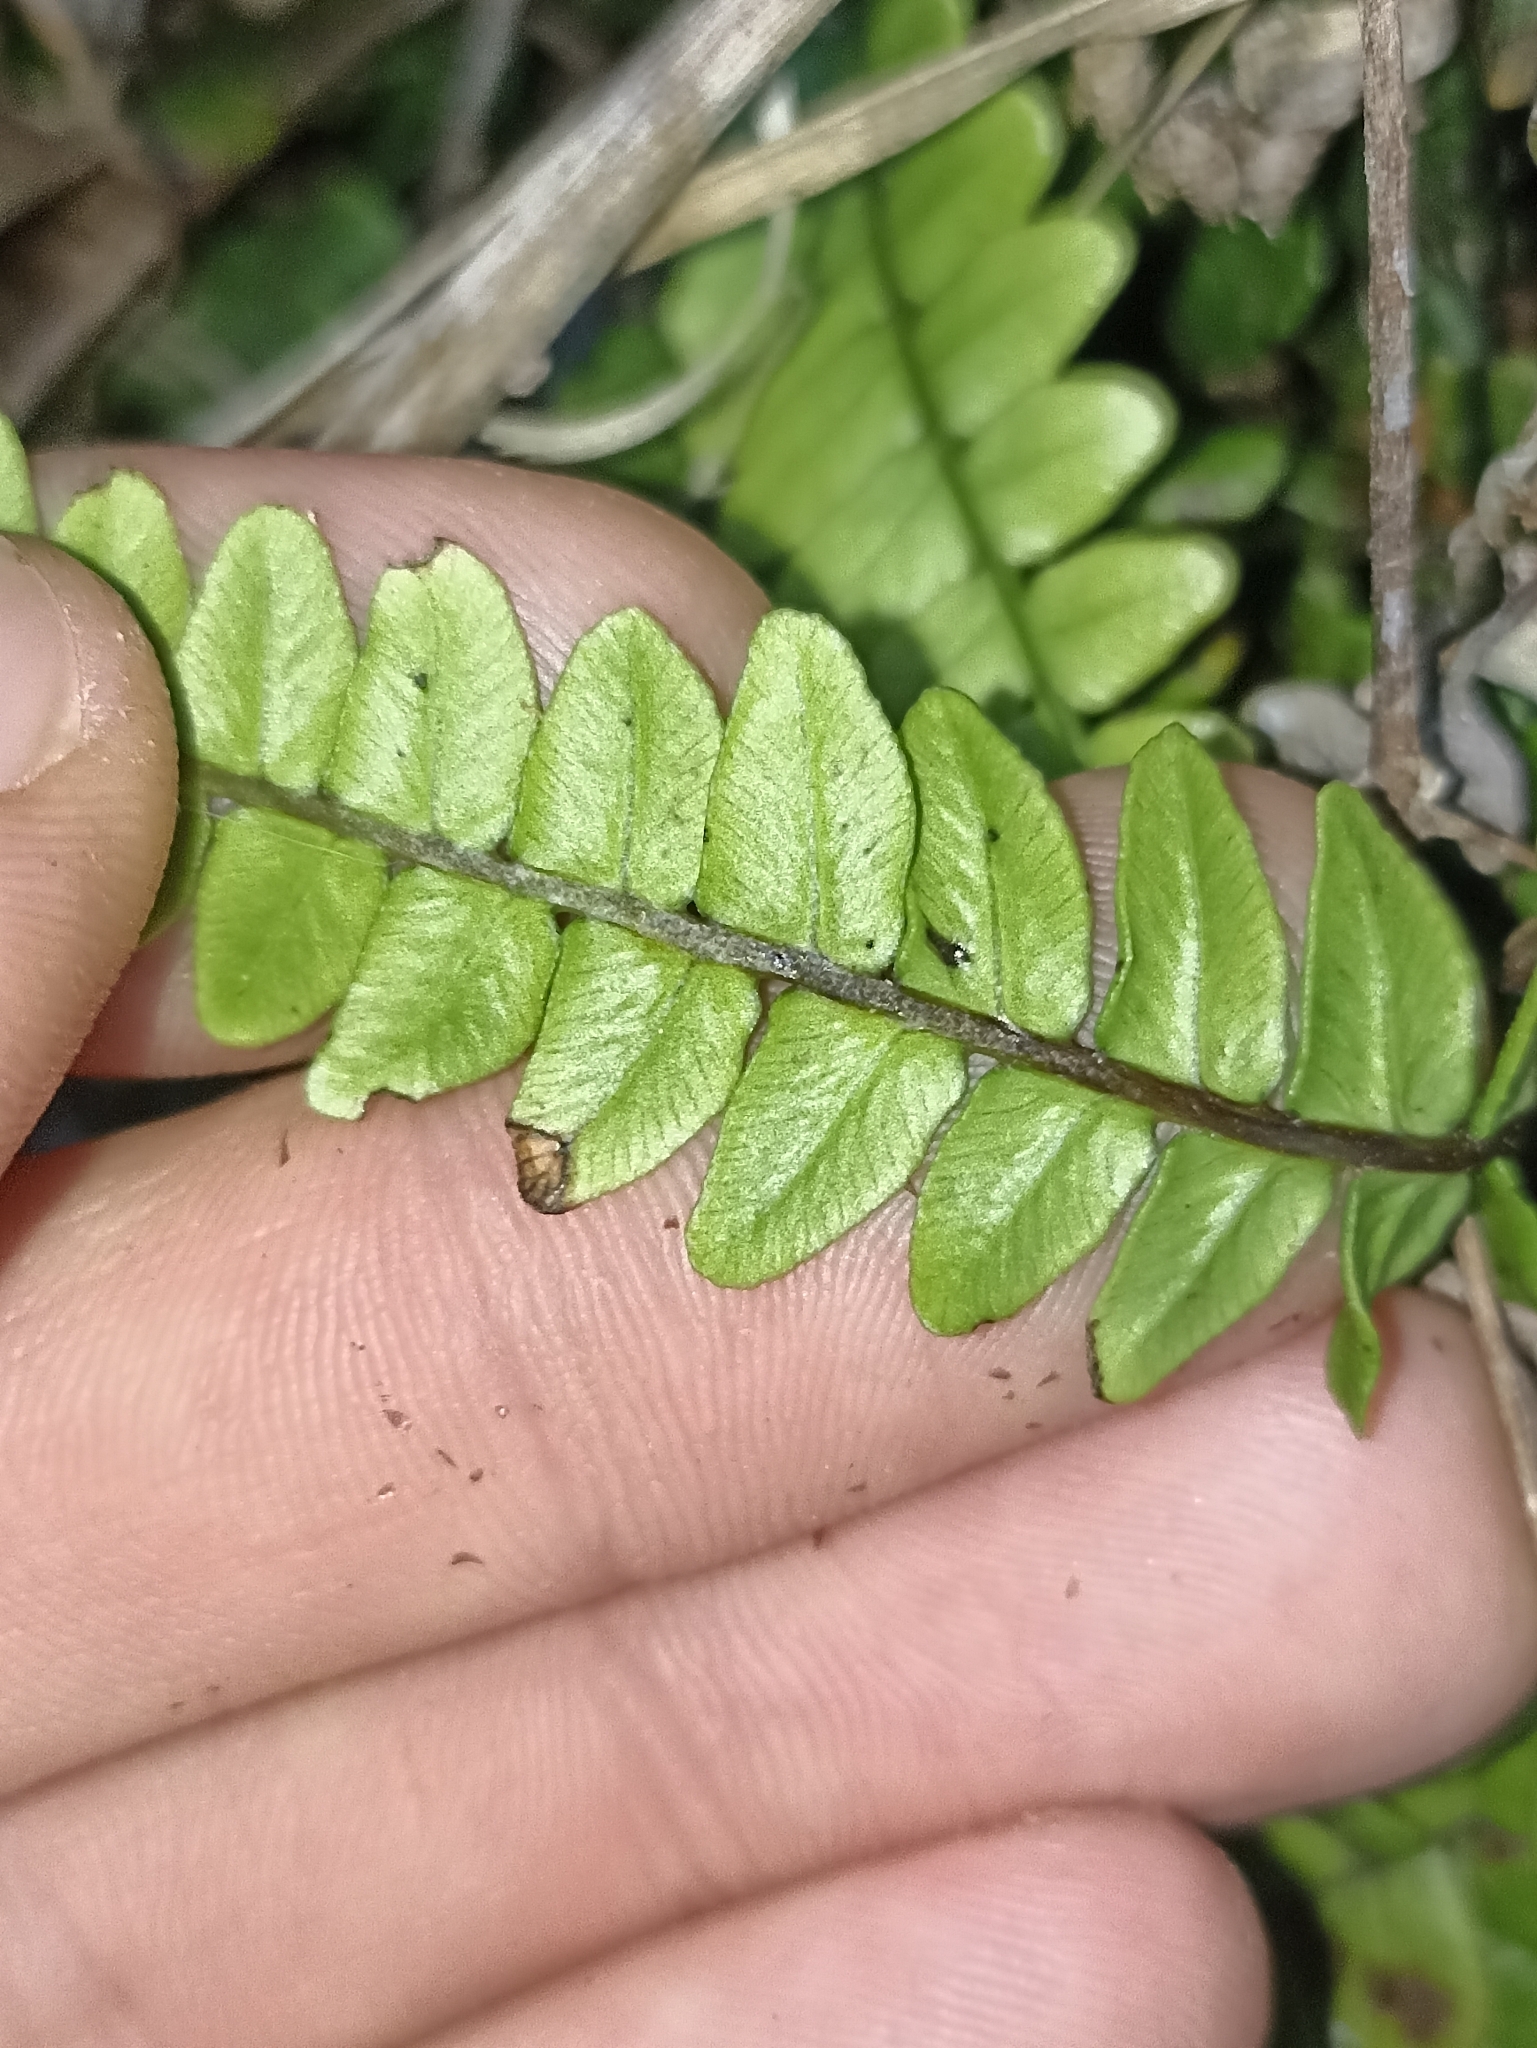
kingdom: Plantae
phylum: Tracheophyta
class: Polypodiopsida
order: Polypodiales
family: Blechnaceae
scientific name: Blechnaceae
